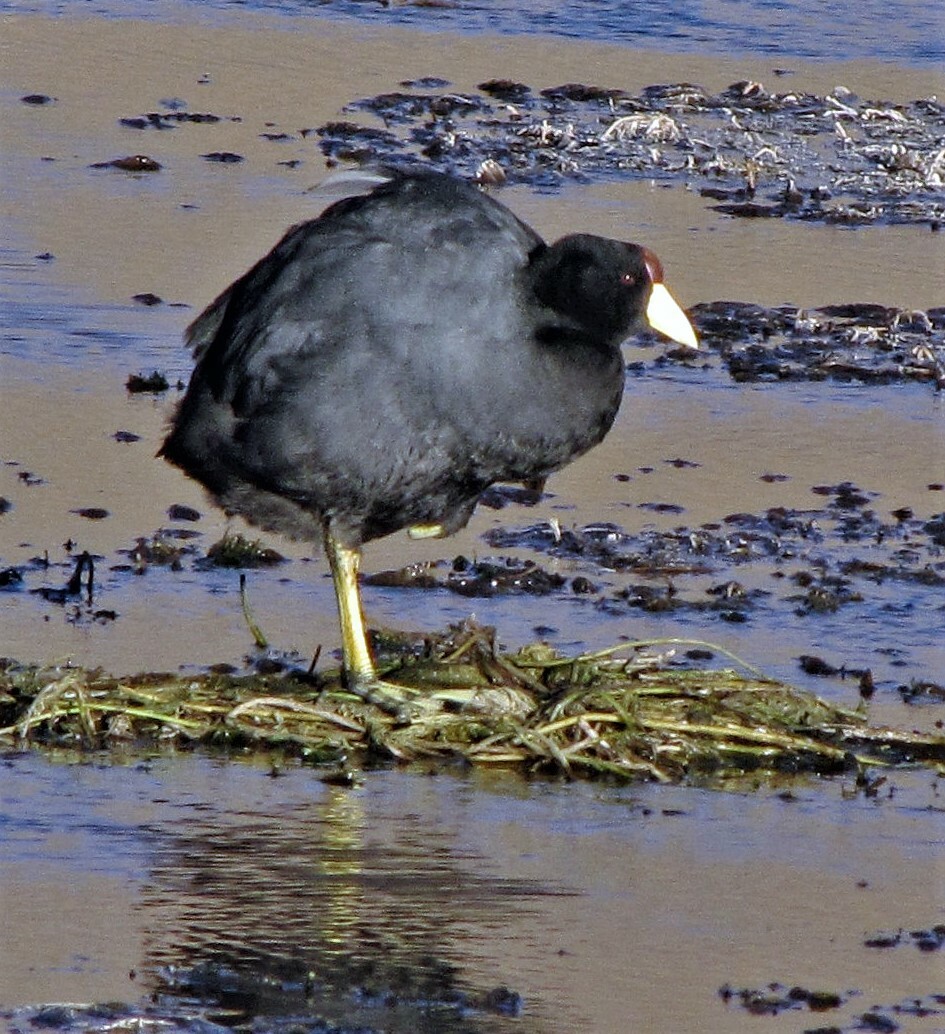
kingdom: Animalia
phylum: Chordata
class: Aves
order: Gruiformes
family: Rallidae
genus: Fulica
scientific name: Fulica ardesiaca
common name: Andean coot
